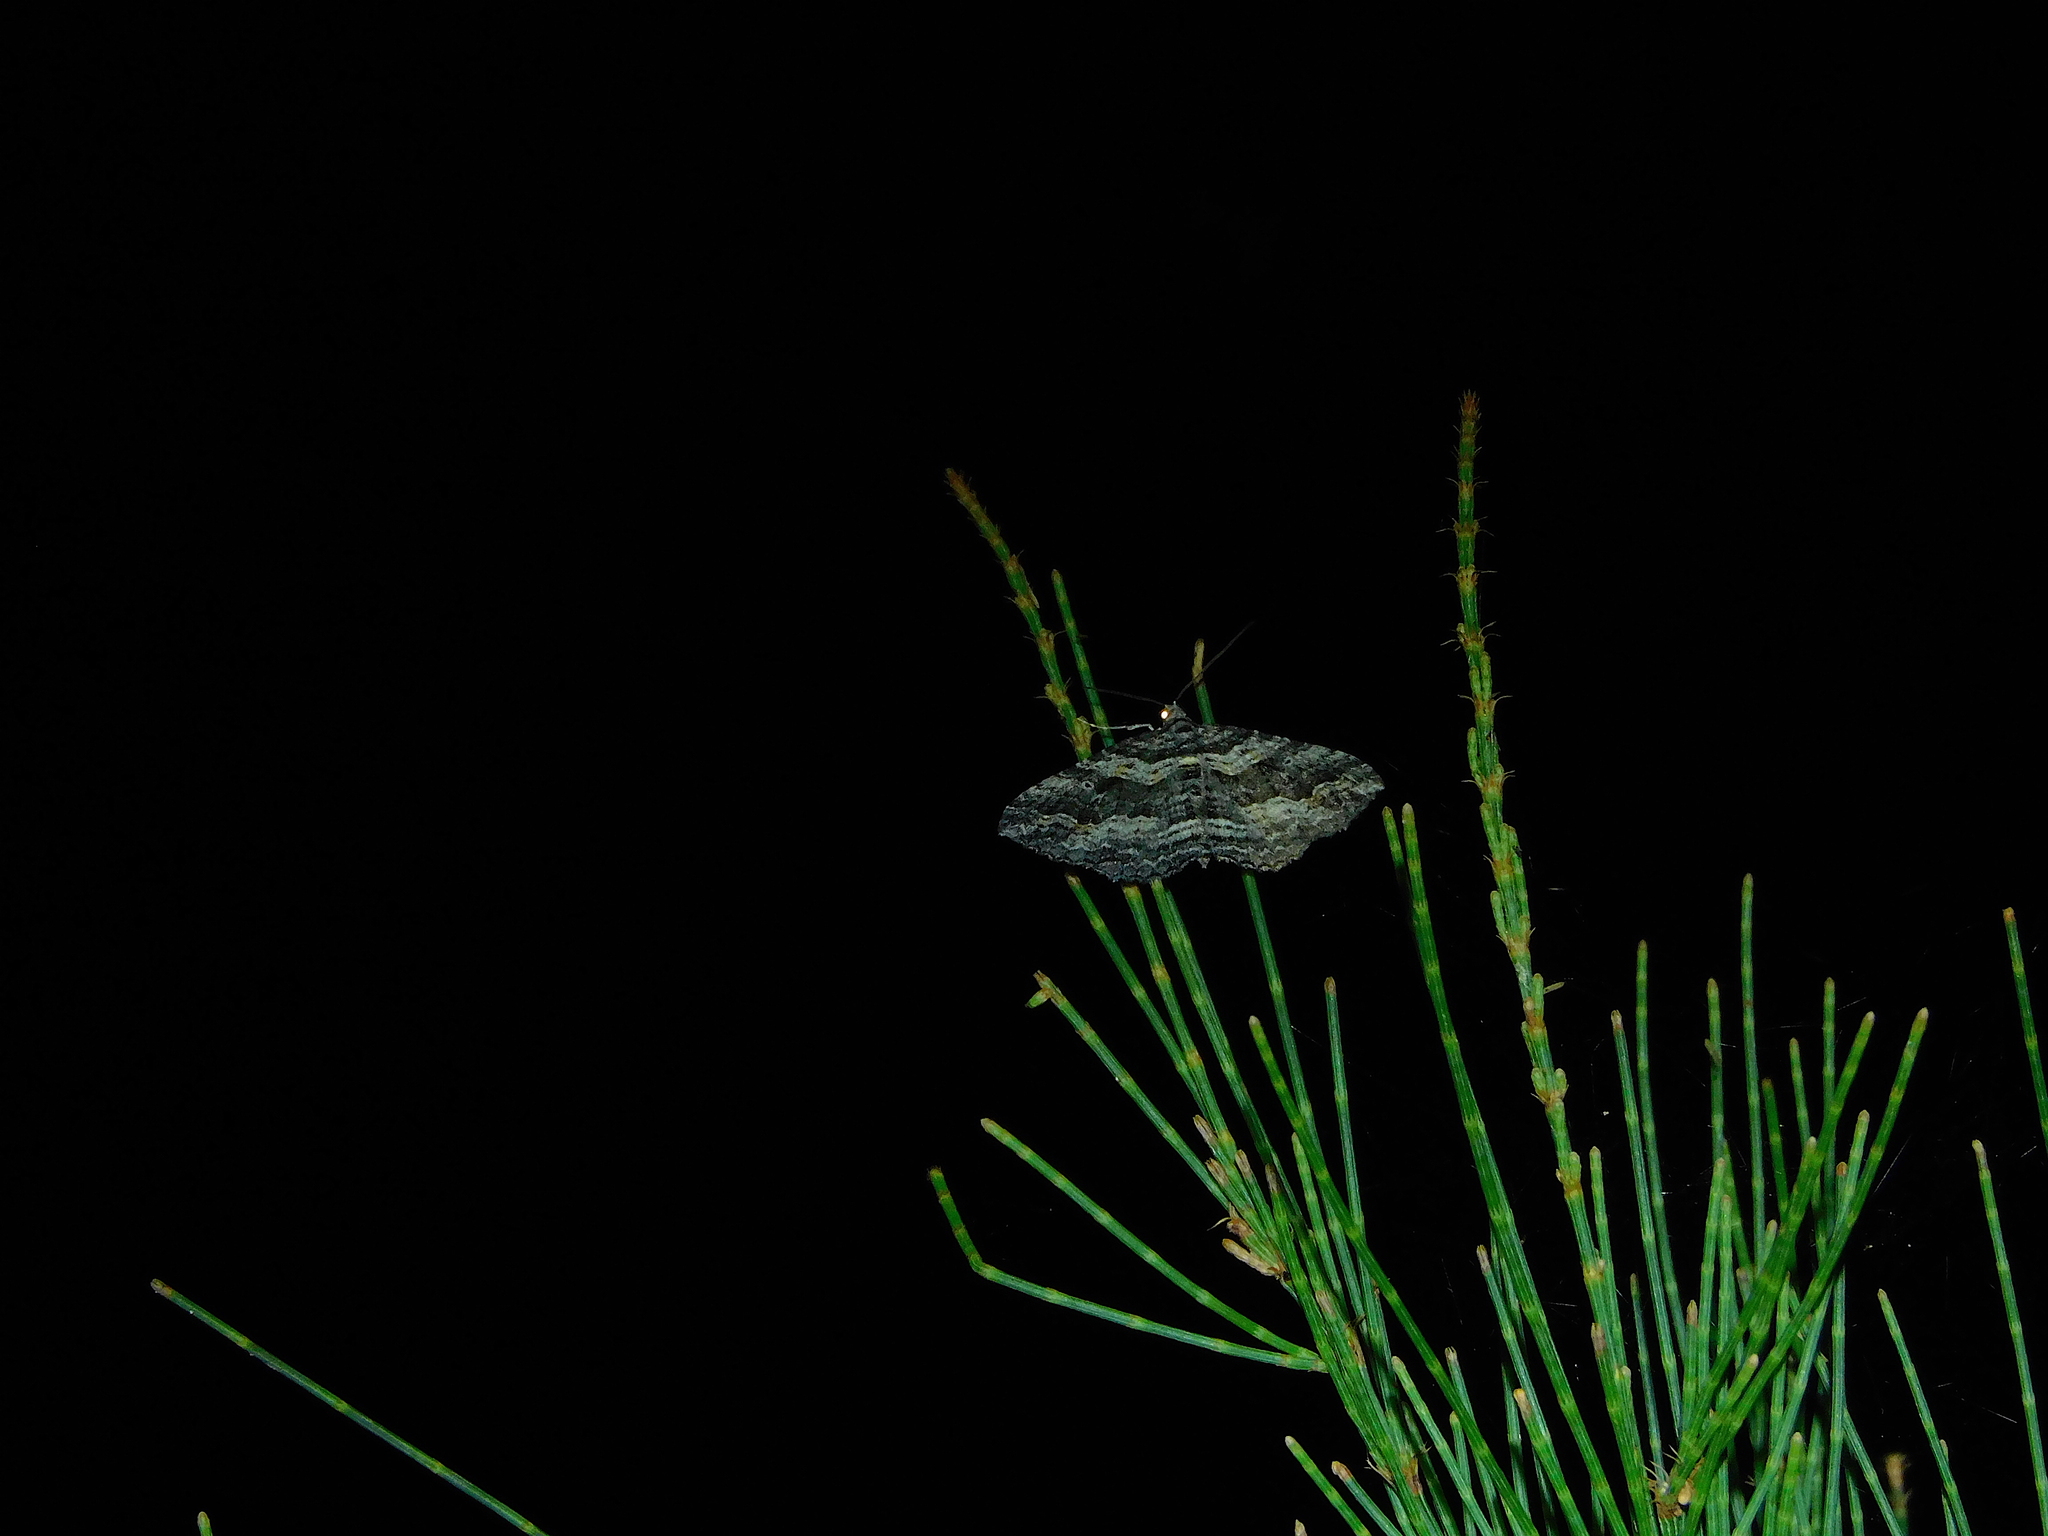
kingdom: Animalia
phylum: Arthropoda
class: Insecta
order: Lepidoptera
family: Geometridae
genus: Chrysolarentia
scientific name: Chrysolarentia severata
